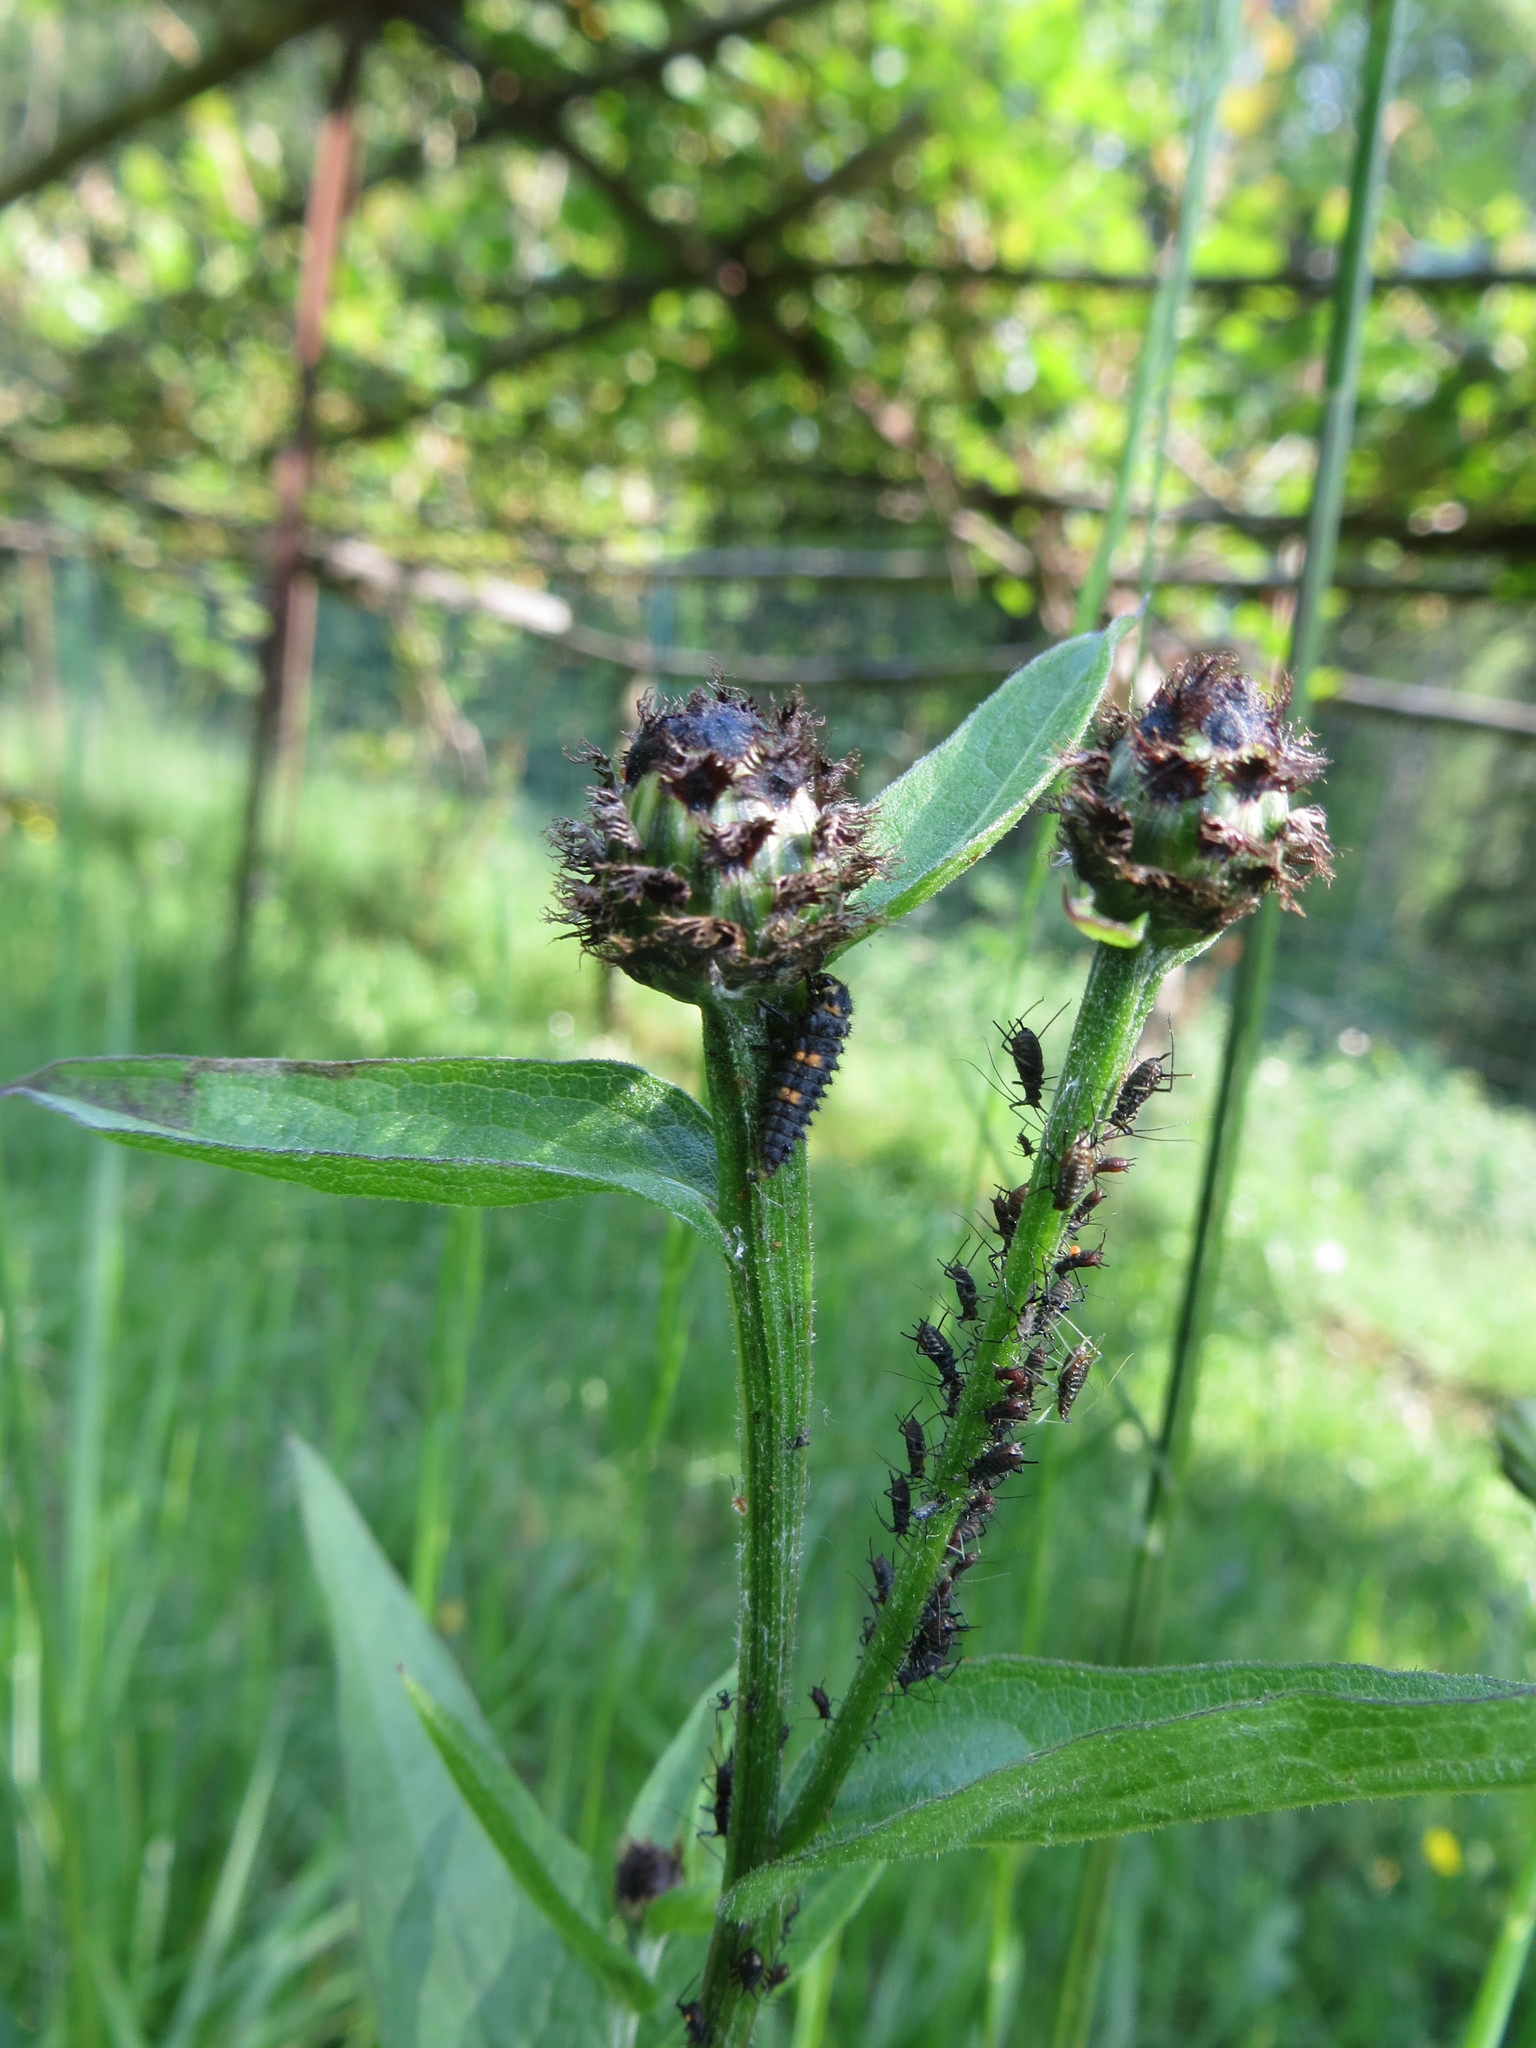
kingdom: Animalia
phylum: Arthropoda
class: Insecta
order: Coleoptera
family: Coccinellidae
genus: Coccinella
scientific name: Coccinella septempunctata
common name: Sevenspotted lady beetle
